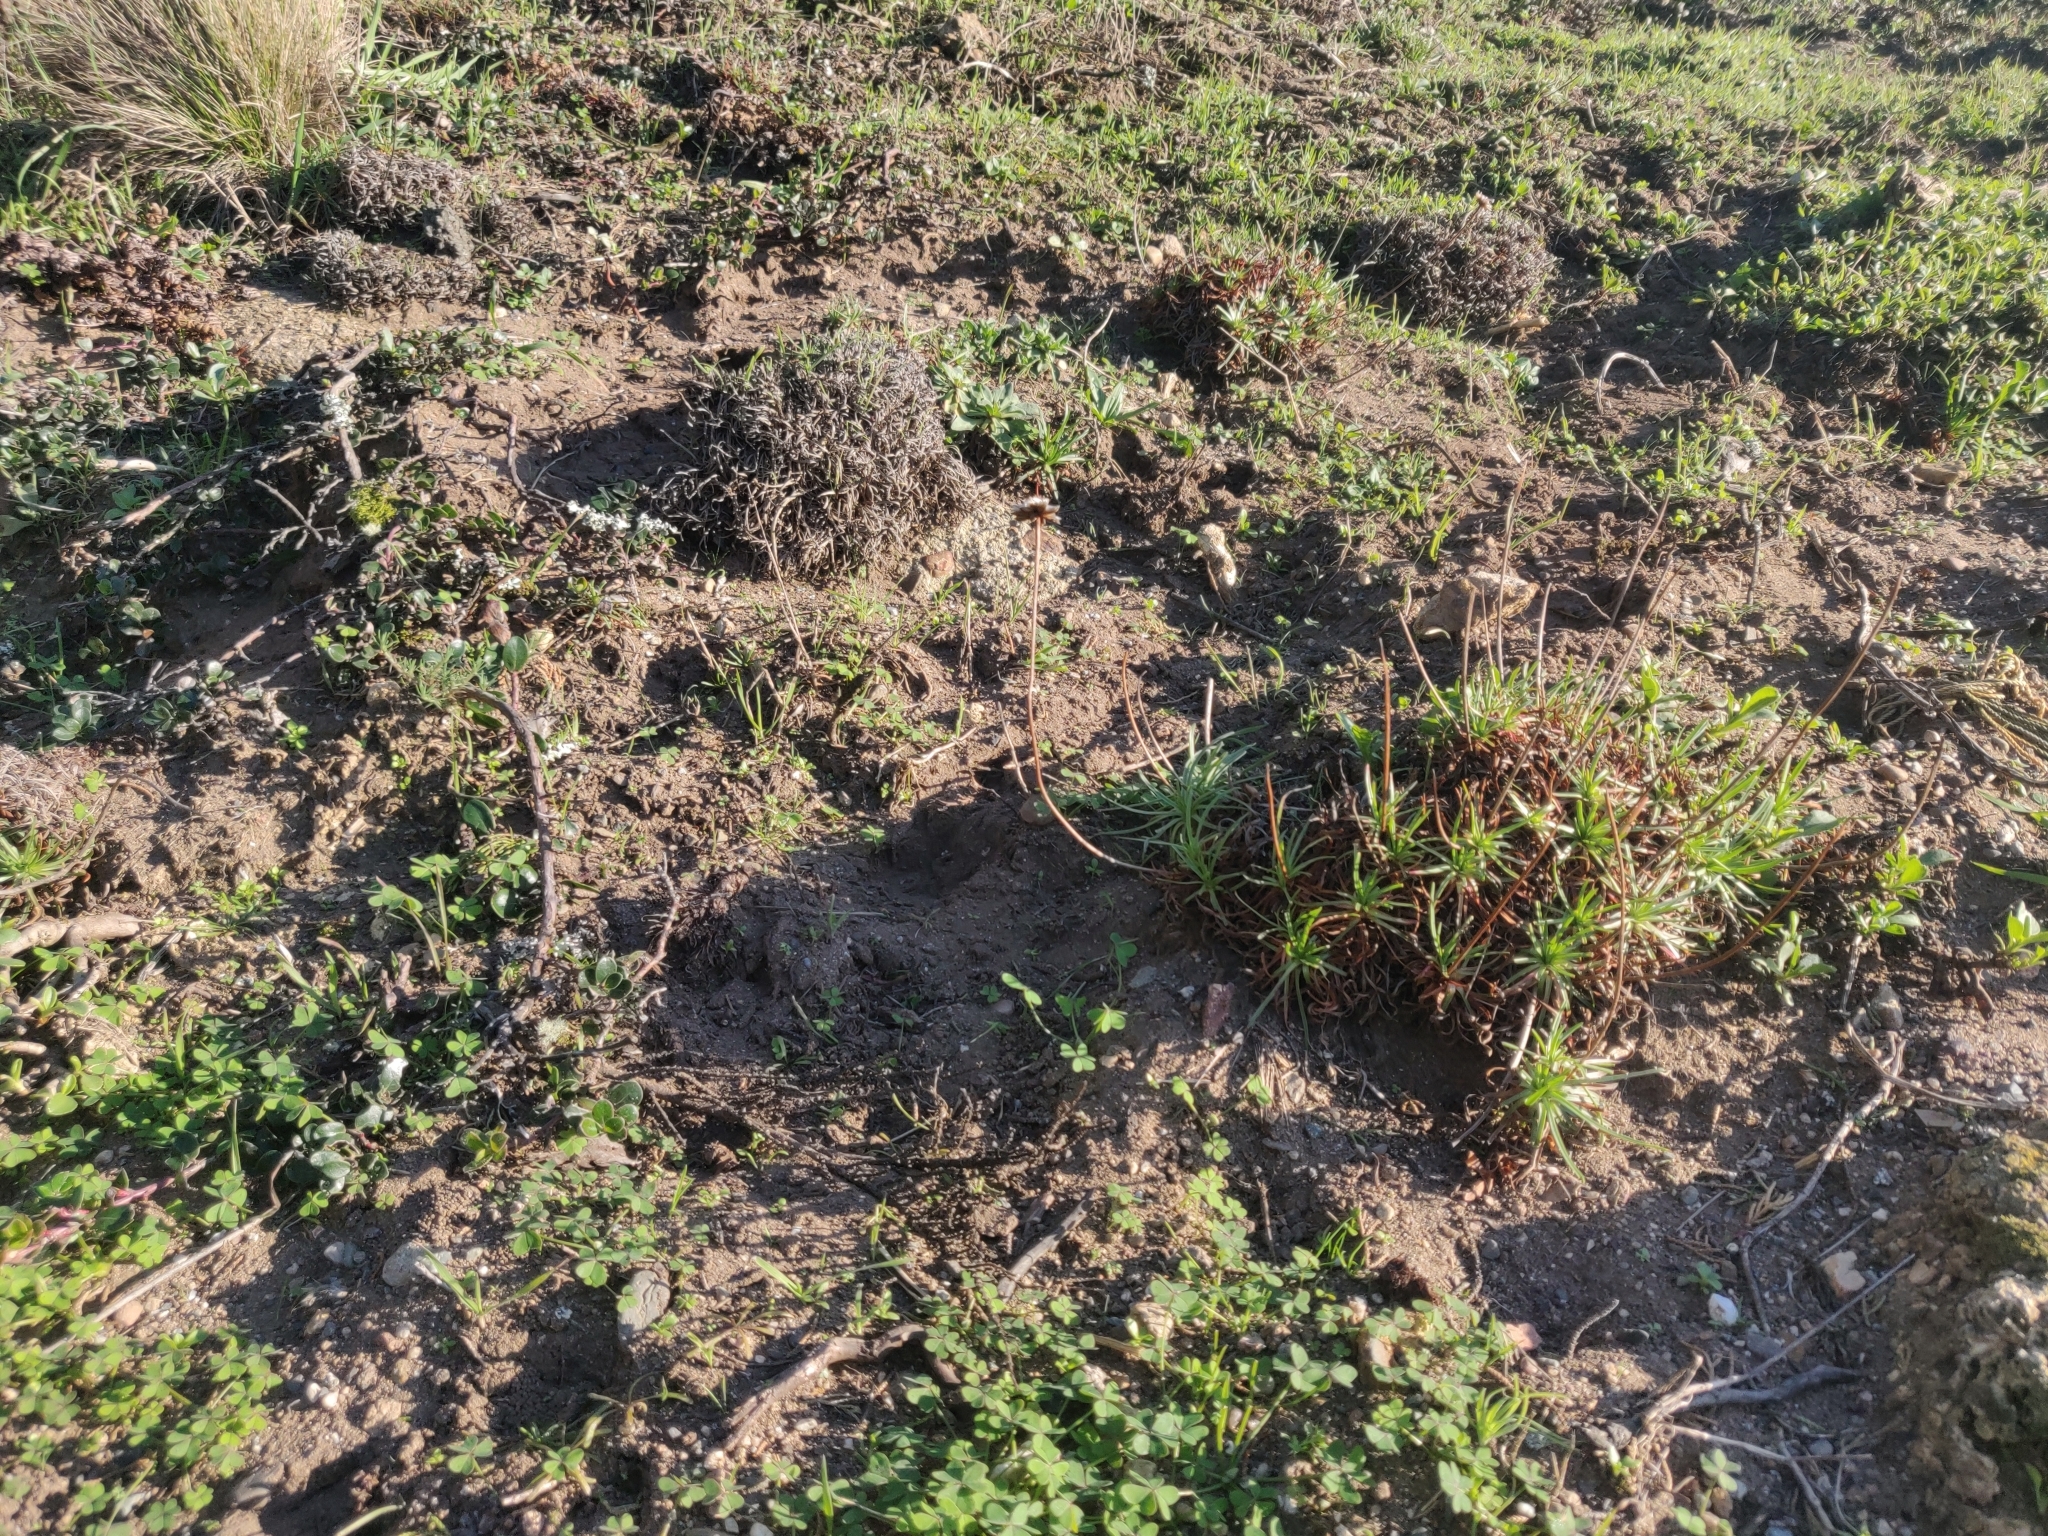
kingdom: Plantae
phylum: Tracheophyta
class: Magnoliopsida
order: Caryophyllales
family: Plumbaginaceae
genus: Armeria
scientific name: Armeria maritima
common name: Thrift
